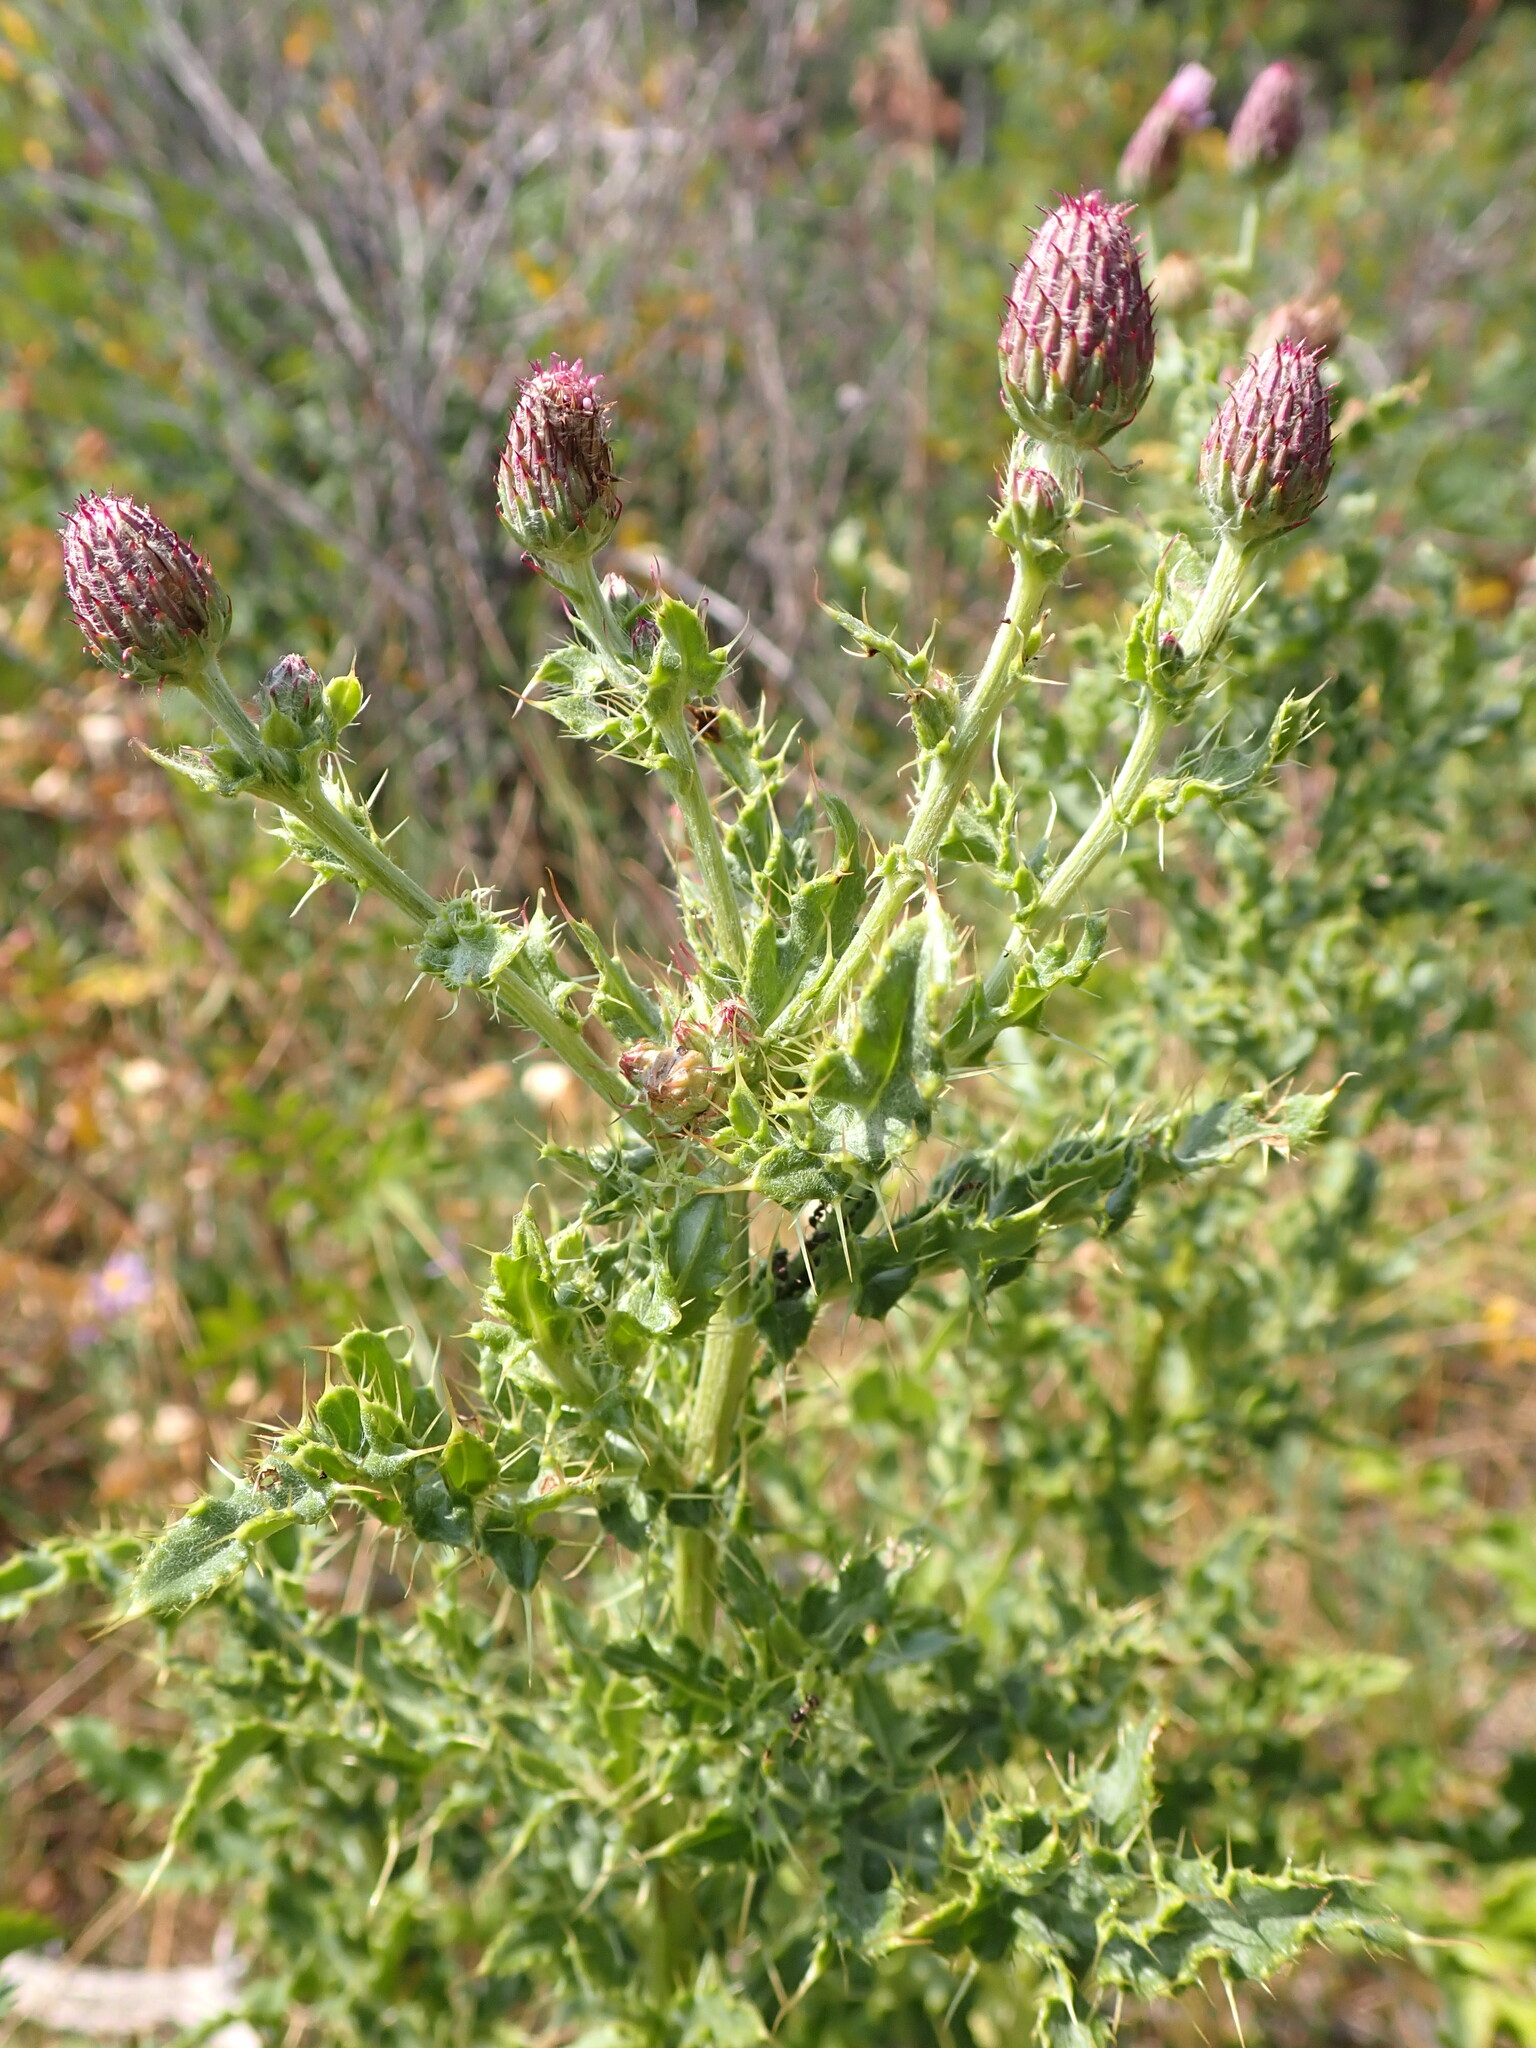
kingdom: Plantae
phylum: Tracheophyta
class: Magnoliopsida
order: Asterales
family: Asteraceae
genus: Cirsium
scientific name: Cirsium arvense
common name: Creeping thistle
